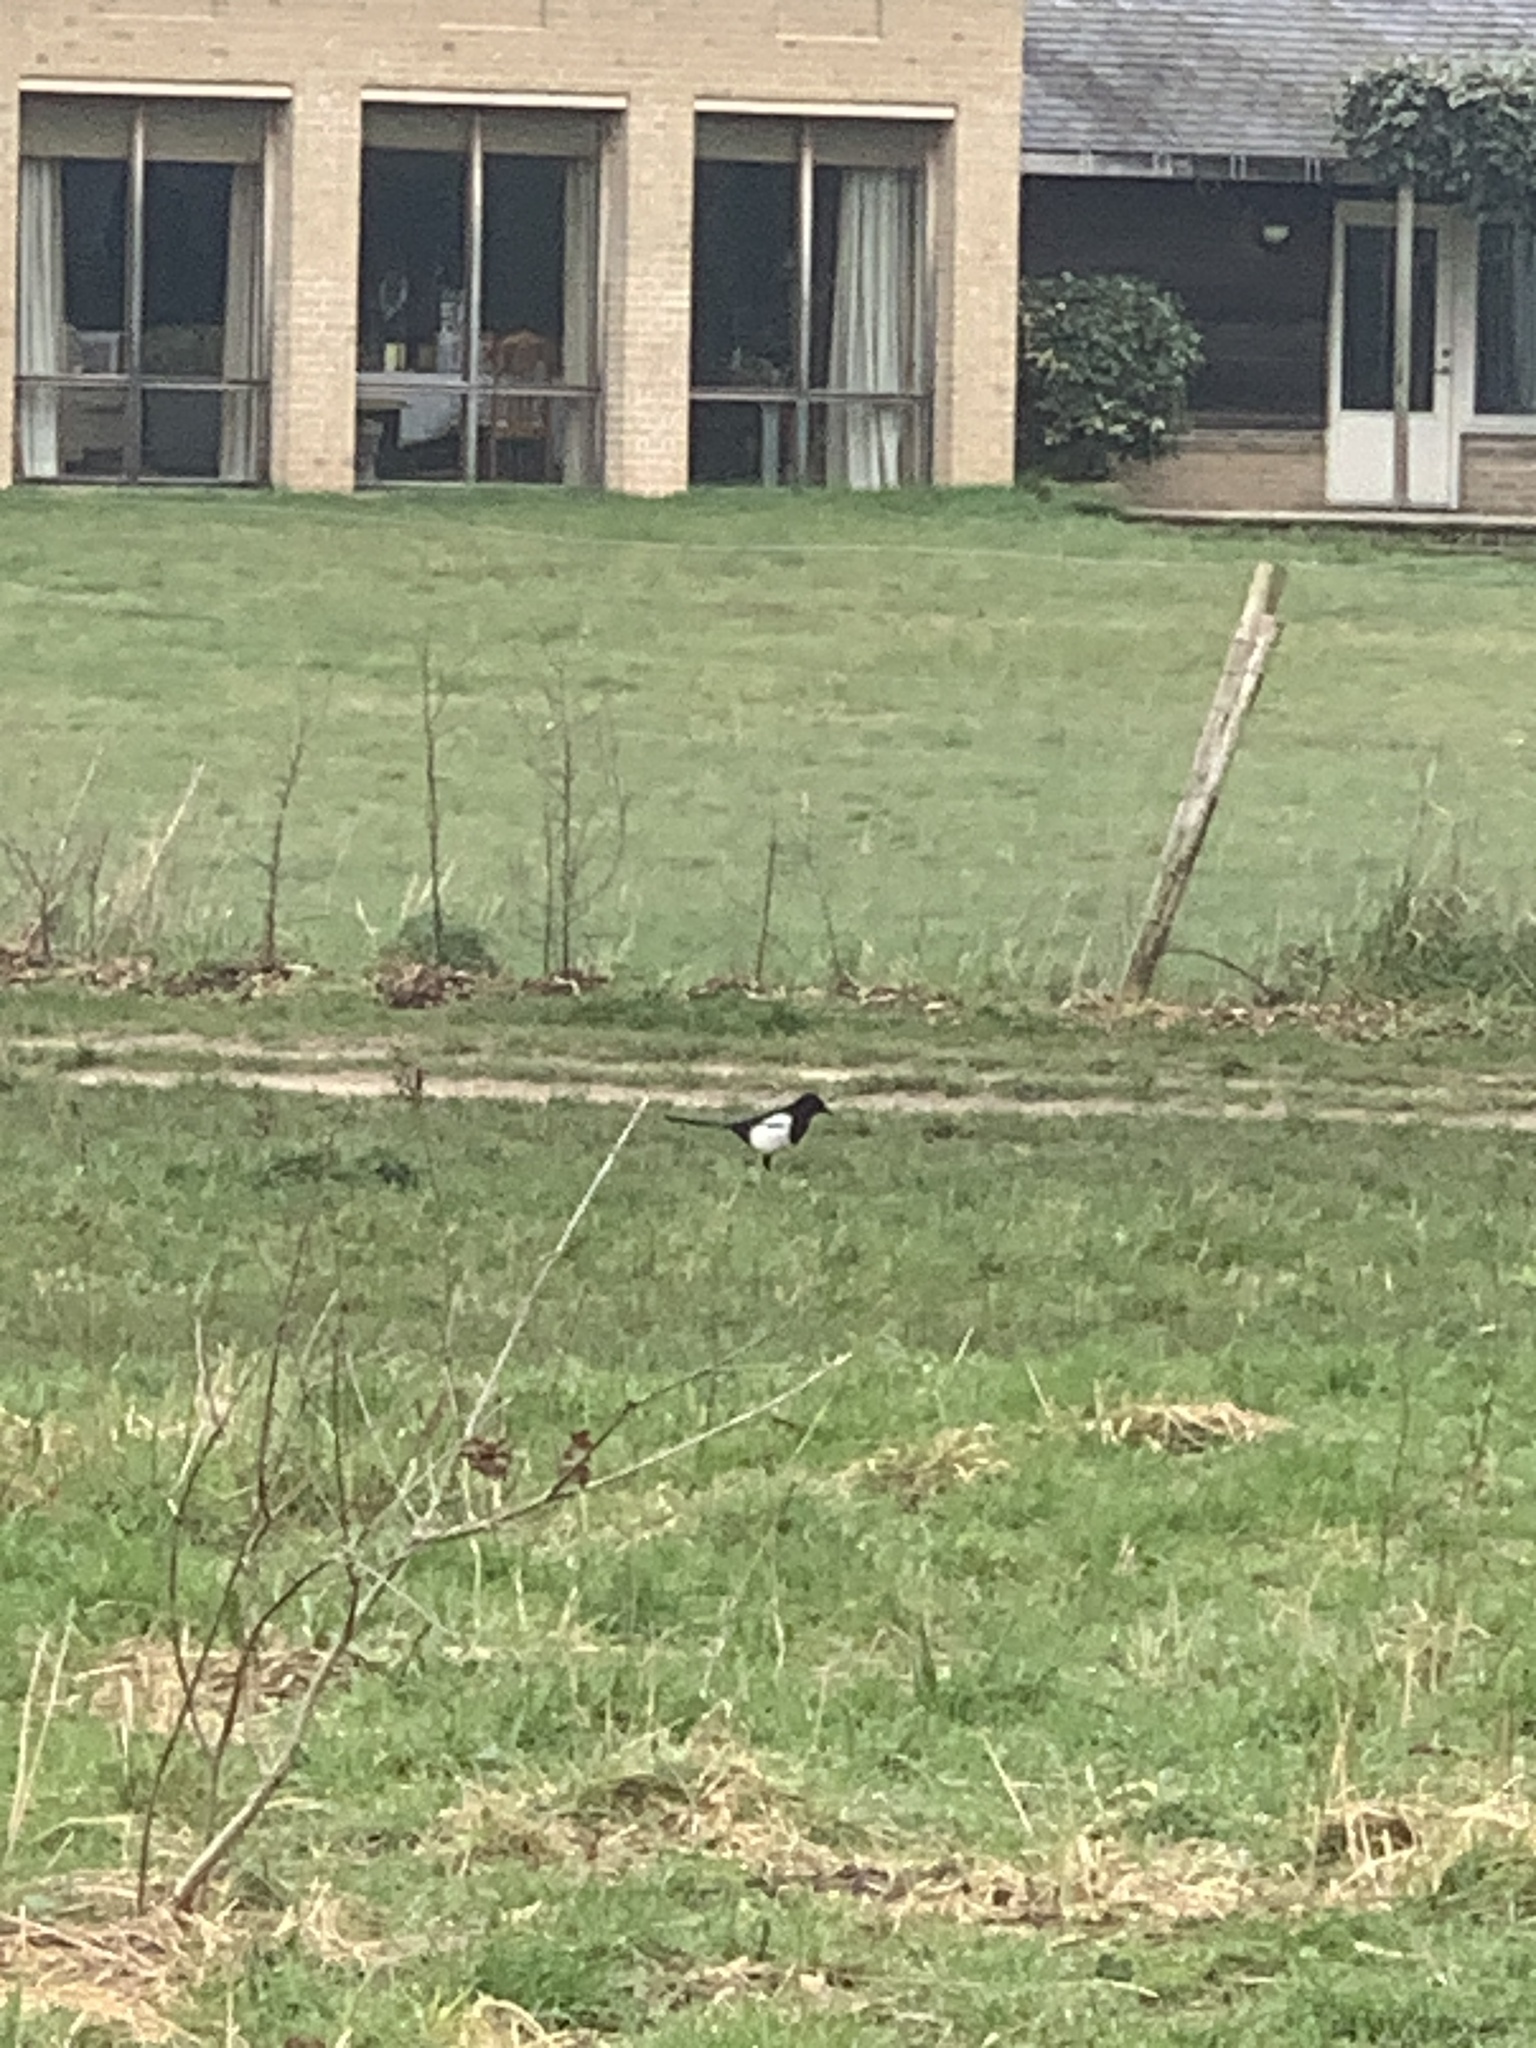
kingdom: Animalia
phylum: Chordata
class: Aves
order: Passeriformes
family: Corvidae
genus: Pica
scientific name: Pica pica
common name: Eurasian magpie
